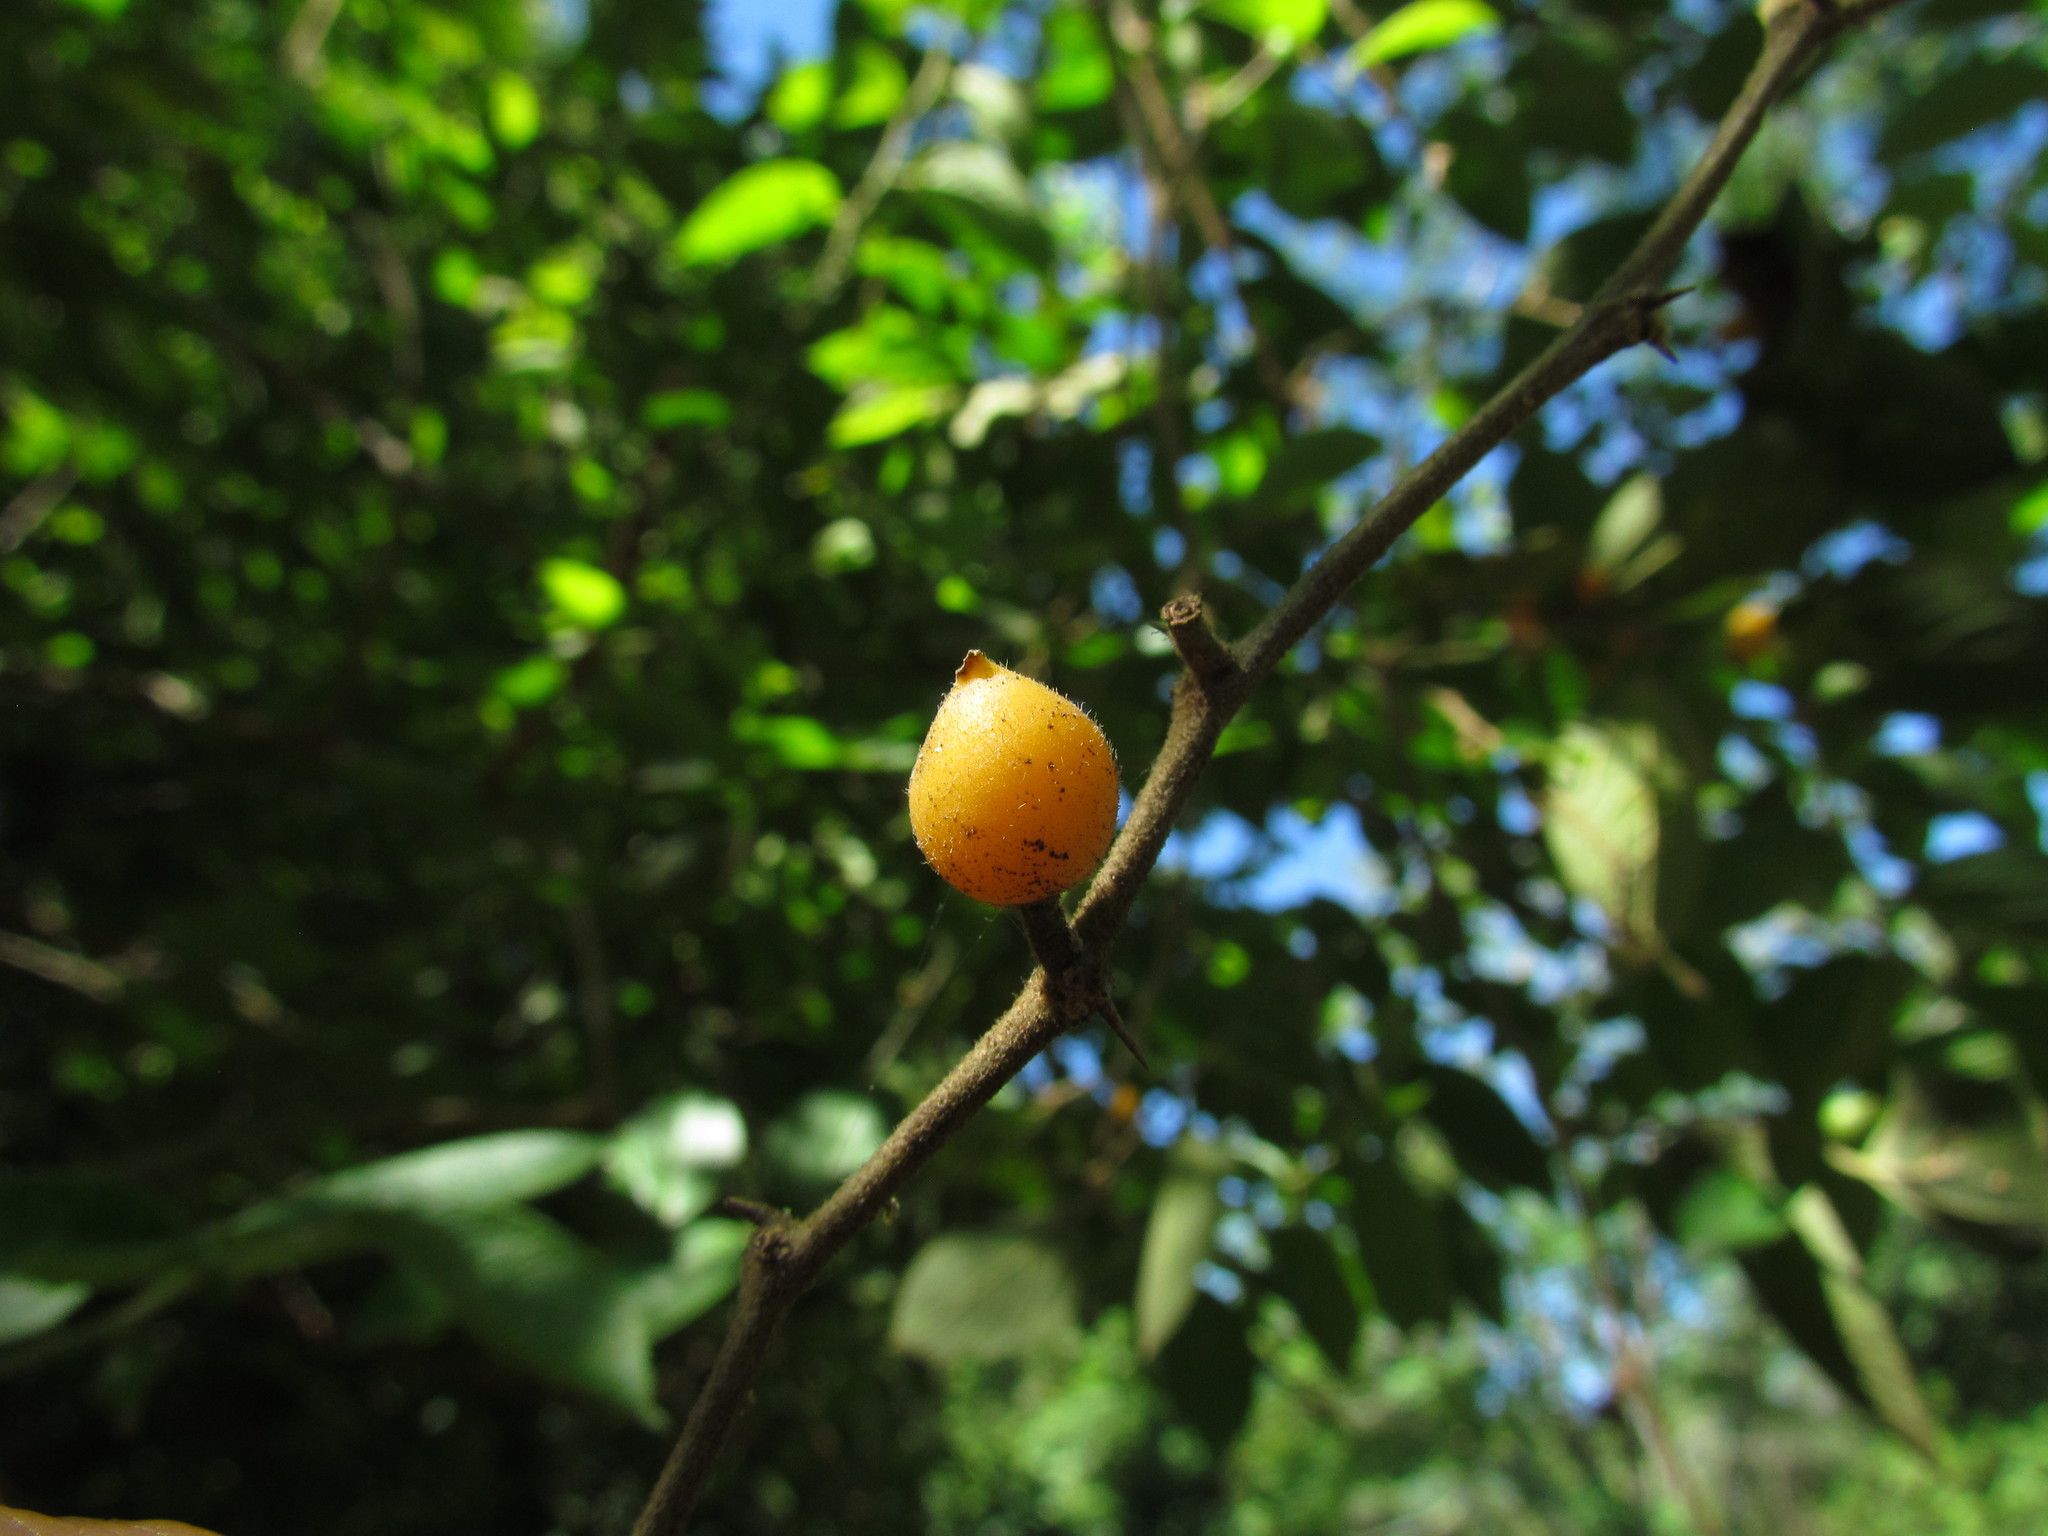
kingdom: Plantae
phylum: Tracheophyta
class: Magnoliopsida
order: Rosales
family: Cannabaceae
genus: Celtis
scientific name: Celtis brasiliensis
